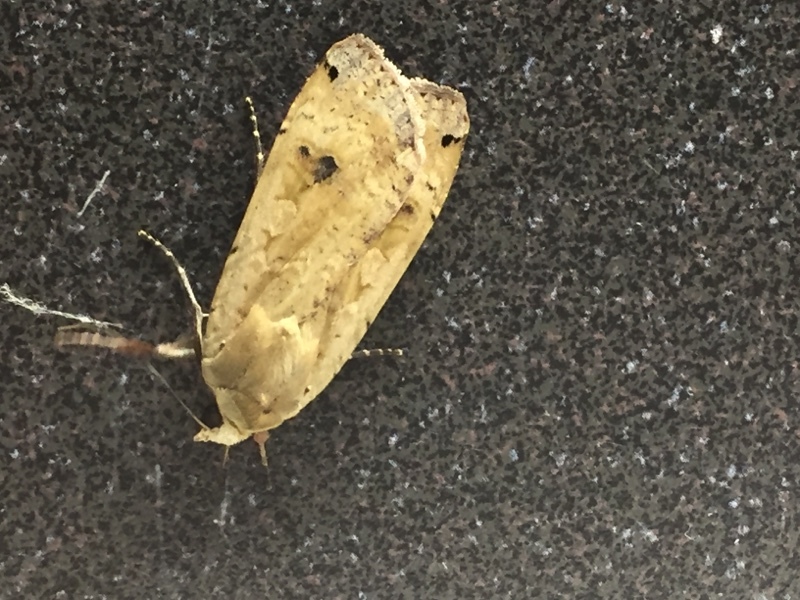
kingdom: Animalia
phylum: Arthropoda
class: Insecta
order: Lepidoptera
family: Noctuidae
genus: Noctua
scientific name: Noctua pronuba
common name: Large yellow underwing
